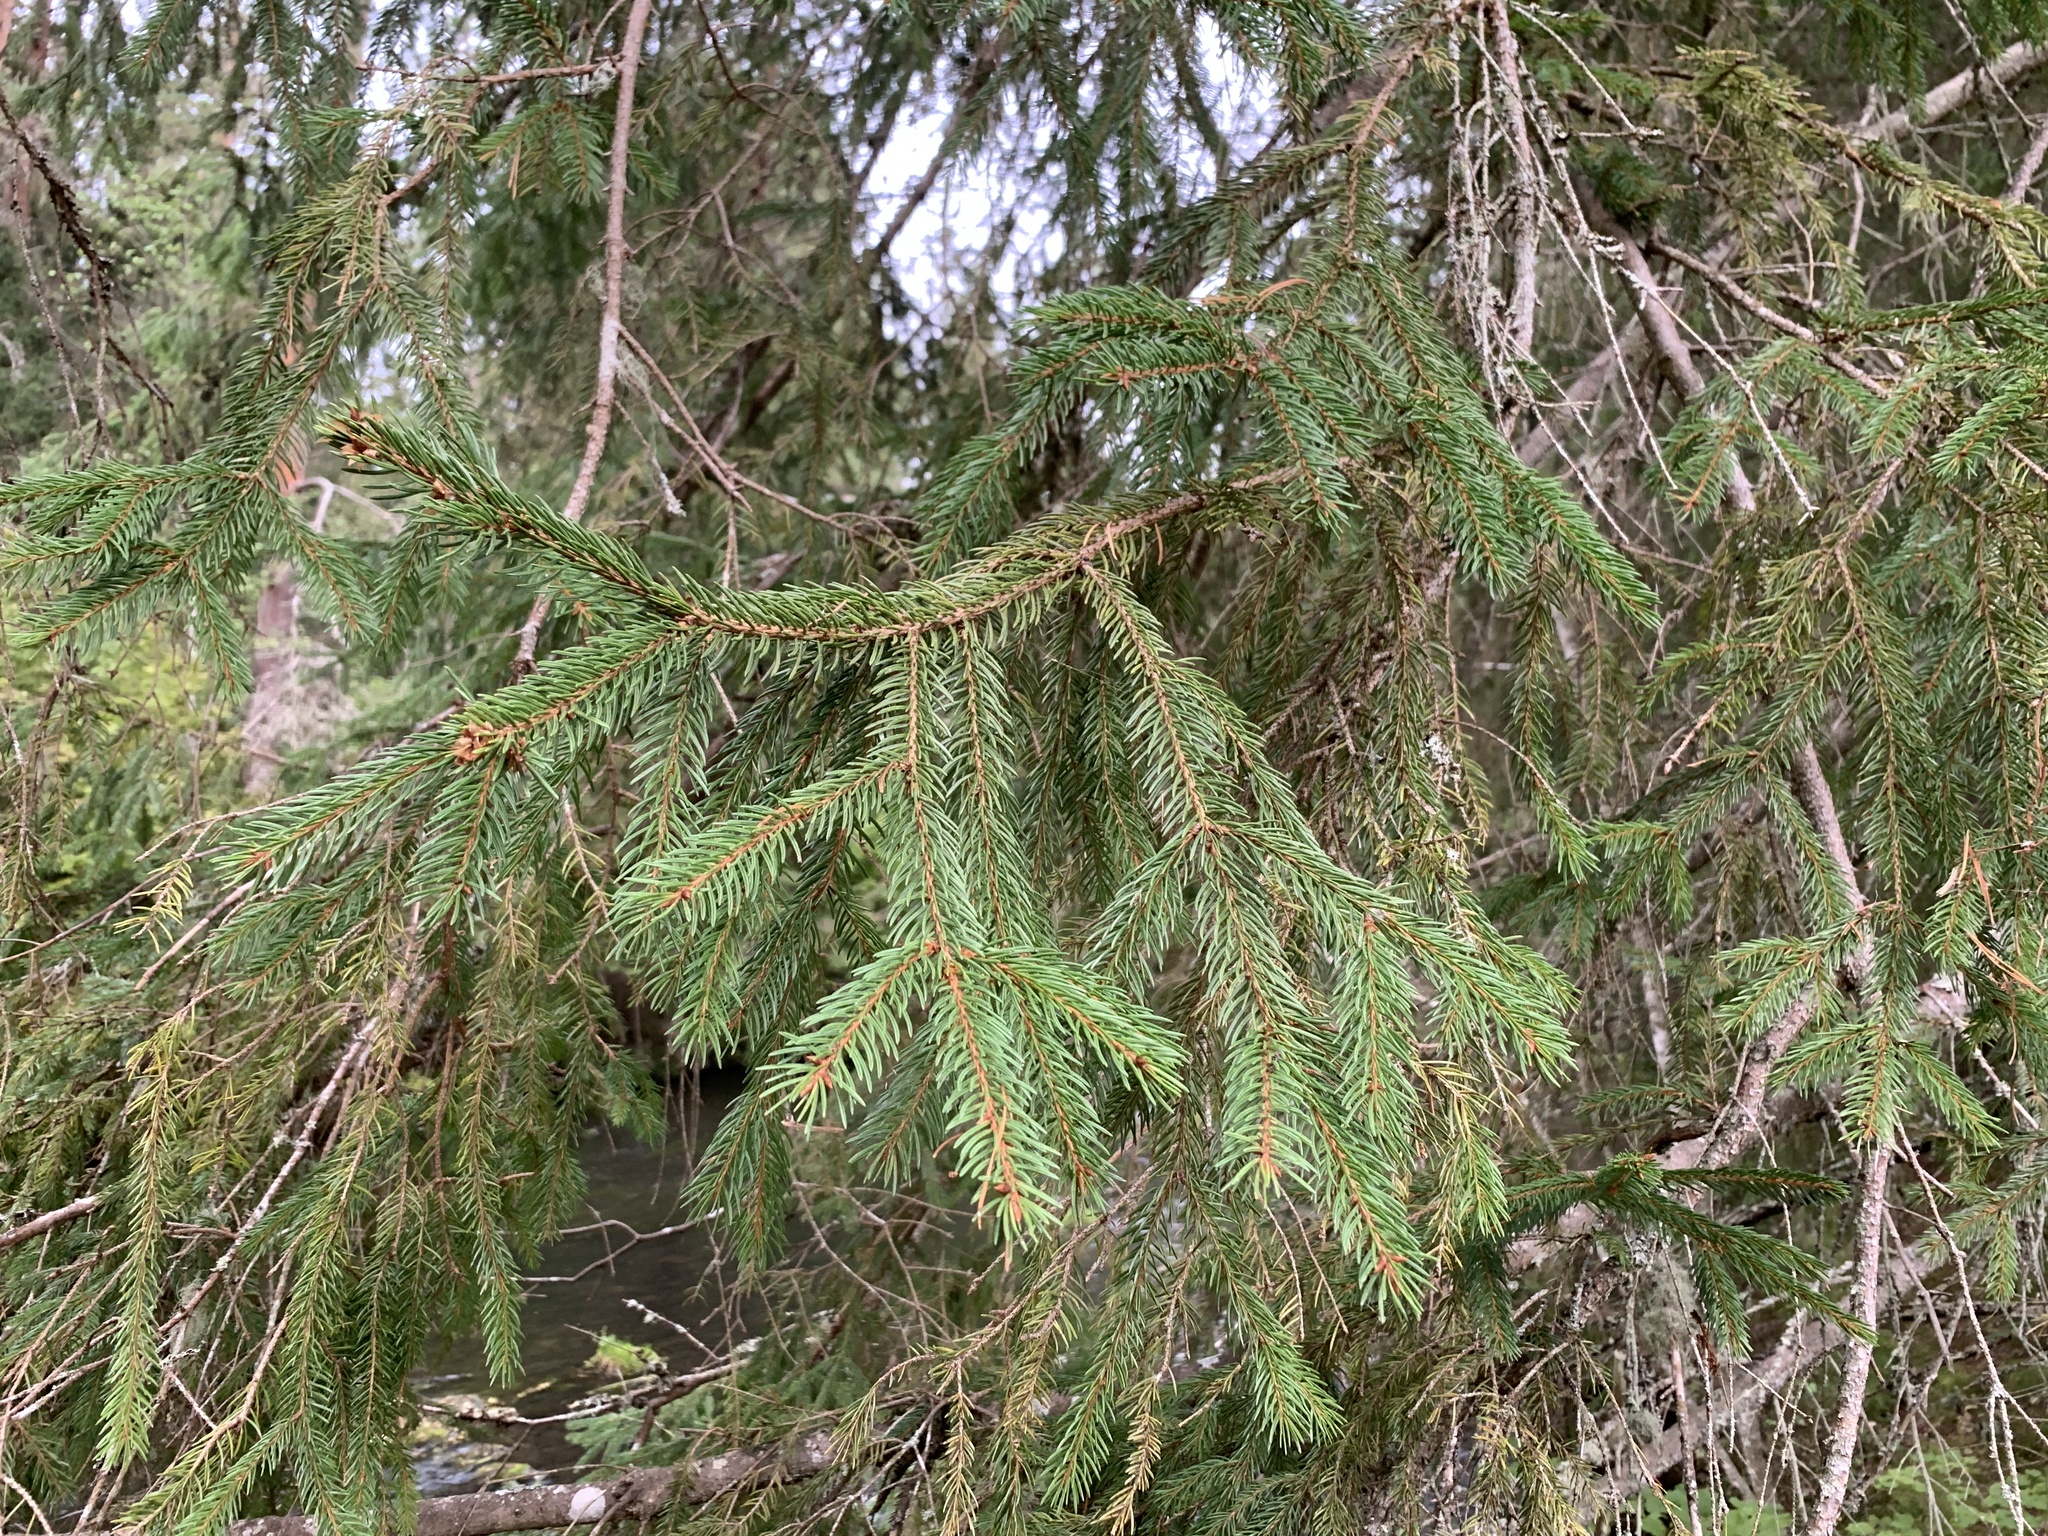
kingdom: Plantae
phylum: Tracheophyta
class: Pinopsida
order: Pinales
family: Pinaceae
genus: Picea
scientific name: Picea abies
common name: Norway spruce
